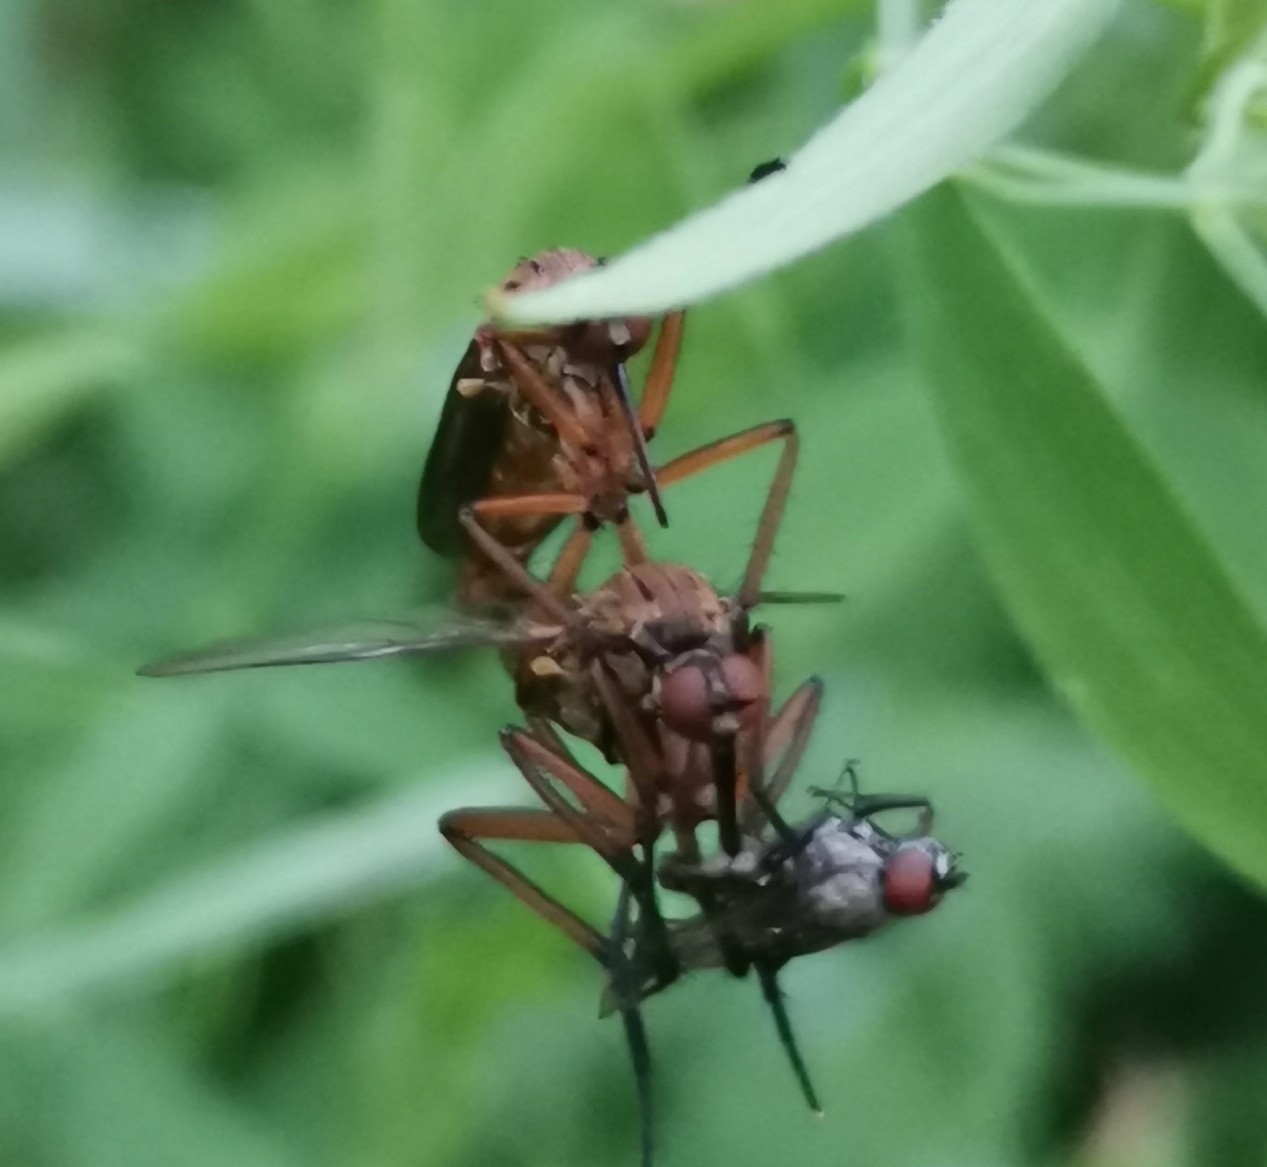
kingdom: Animalia
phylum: Arthropoda
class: Insecta
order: Diptera
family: Empididae
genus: Empis
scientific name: Empis livida
